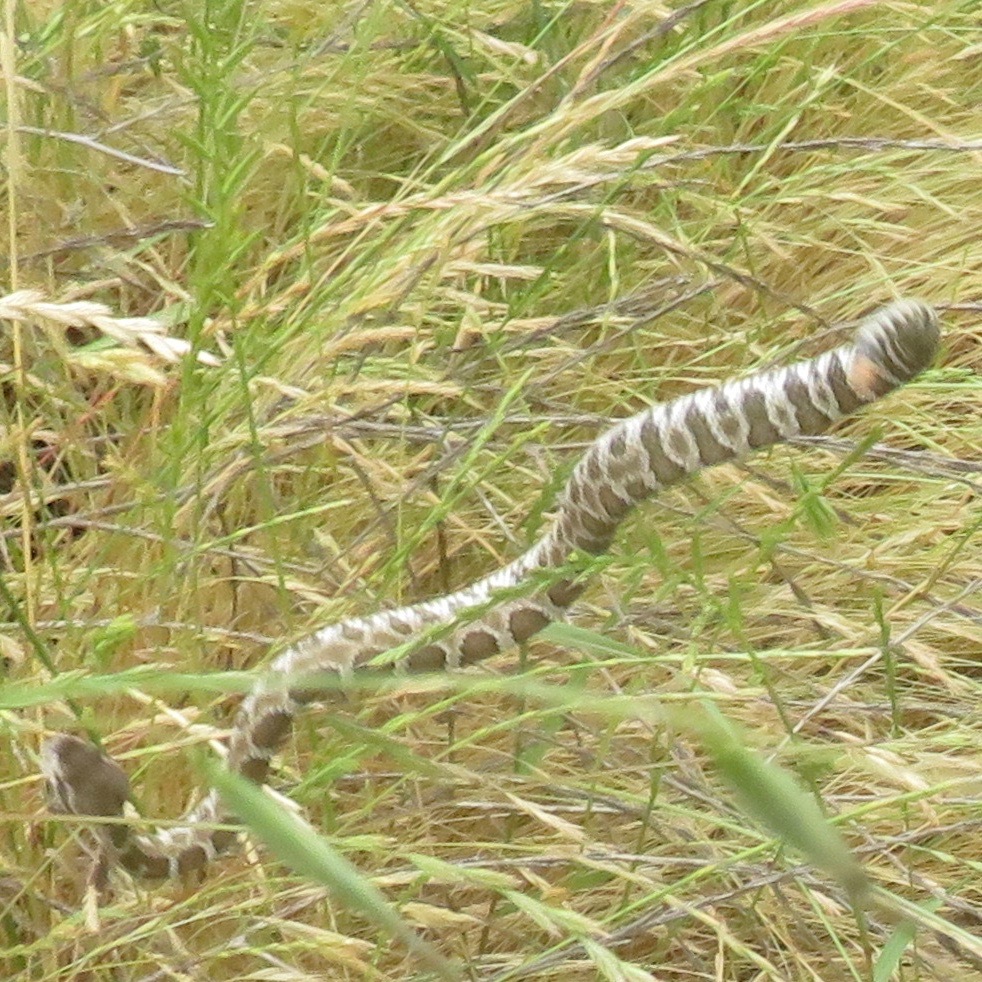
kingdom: Animalia
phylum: Chordata
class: Squamata
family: Viperidae
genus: Crotalus
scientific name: Crotalus oreganus
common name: Abyssus
